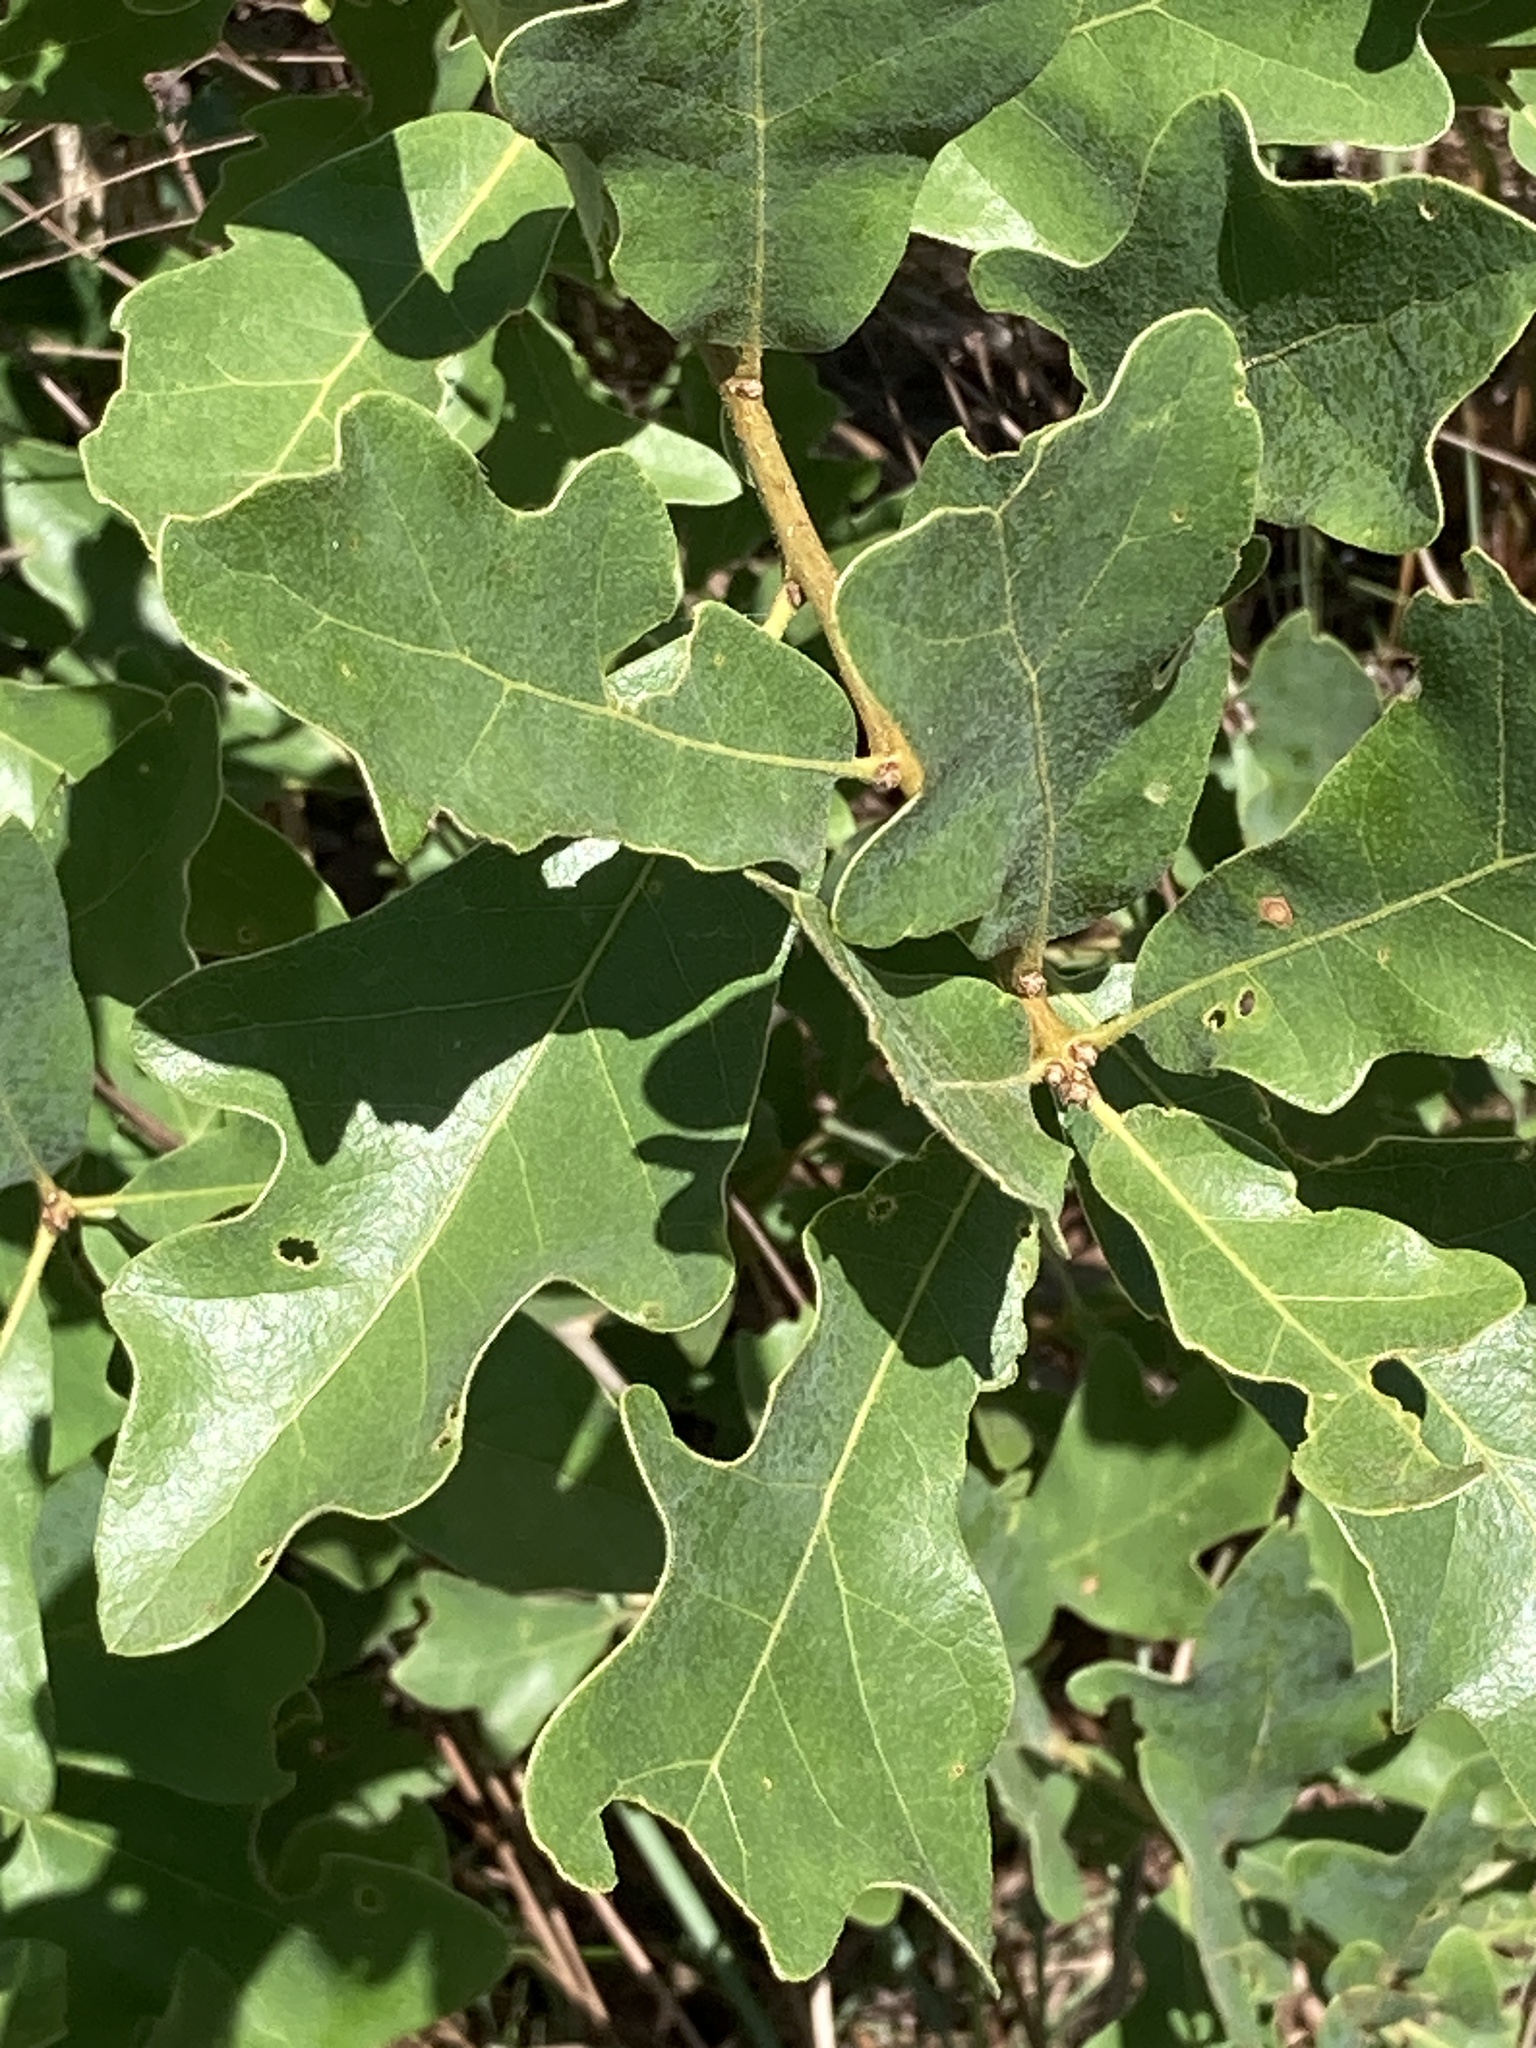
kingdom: Plantae
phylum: Tracheophyta
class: Magnoliopsida
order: Fagales
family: Fagaceae
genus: Quercus
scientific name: Quercus margaretiae
